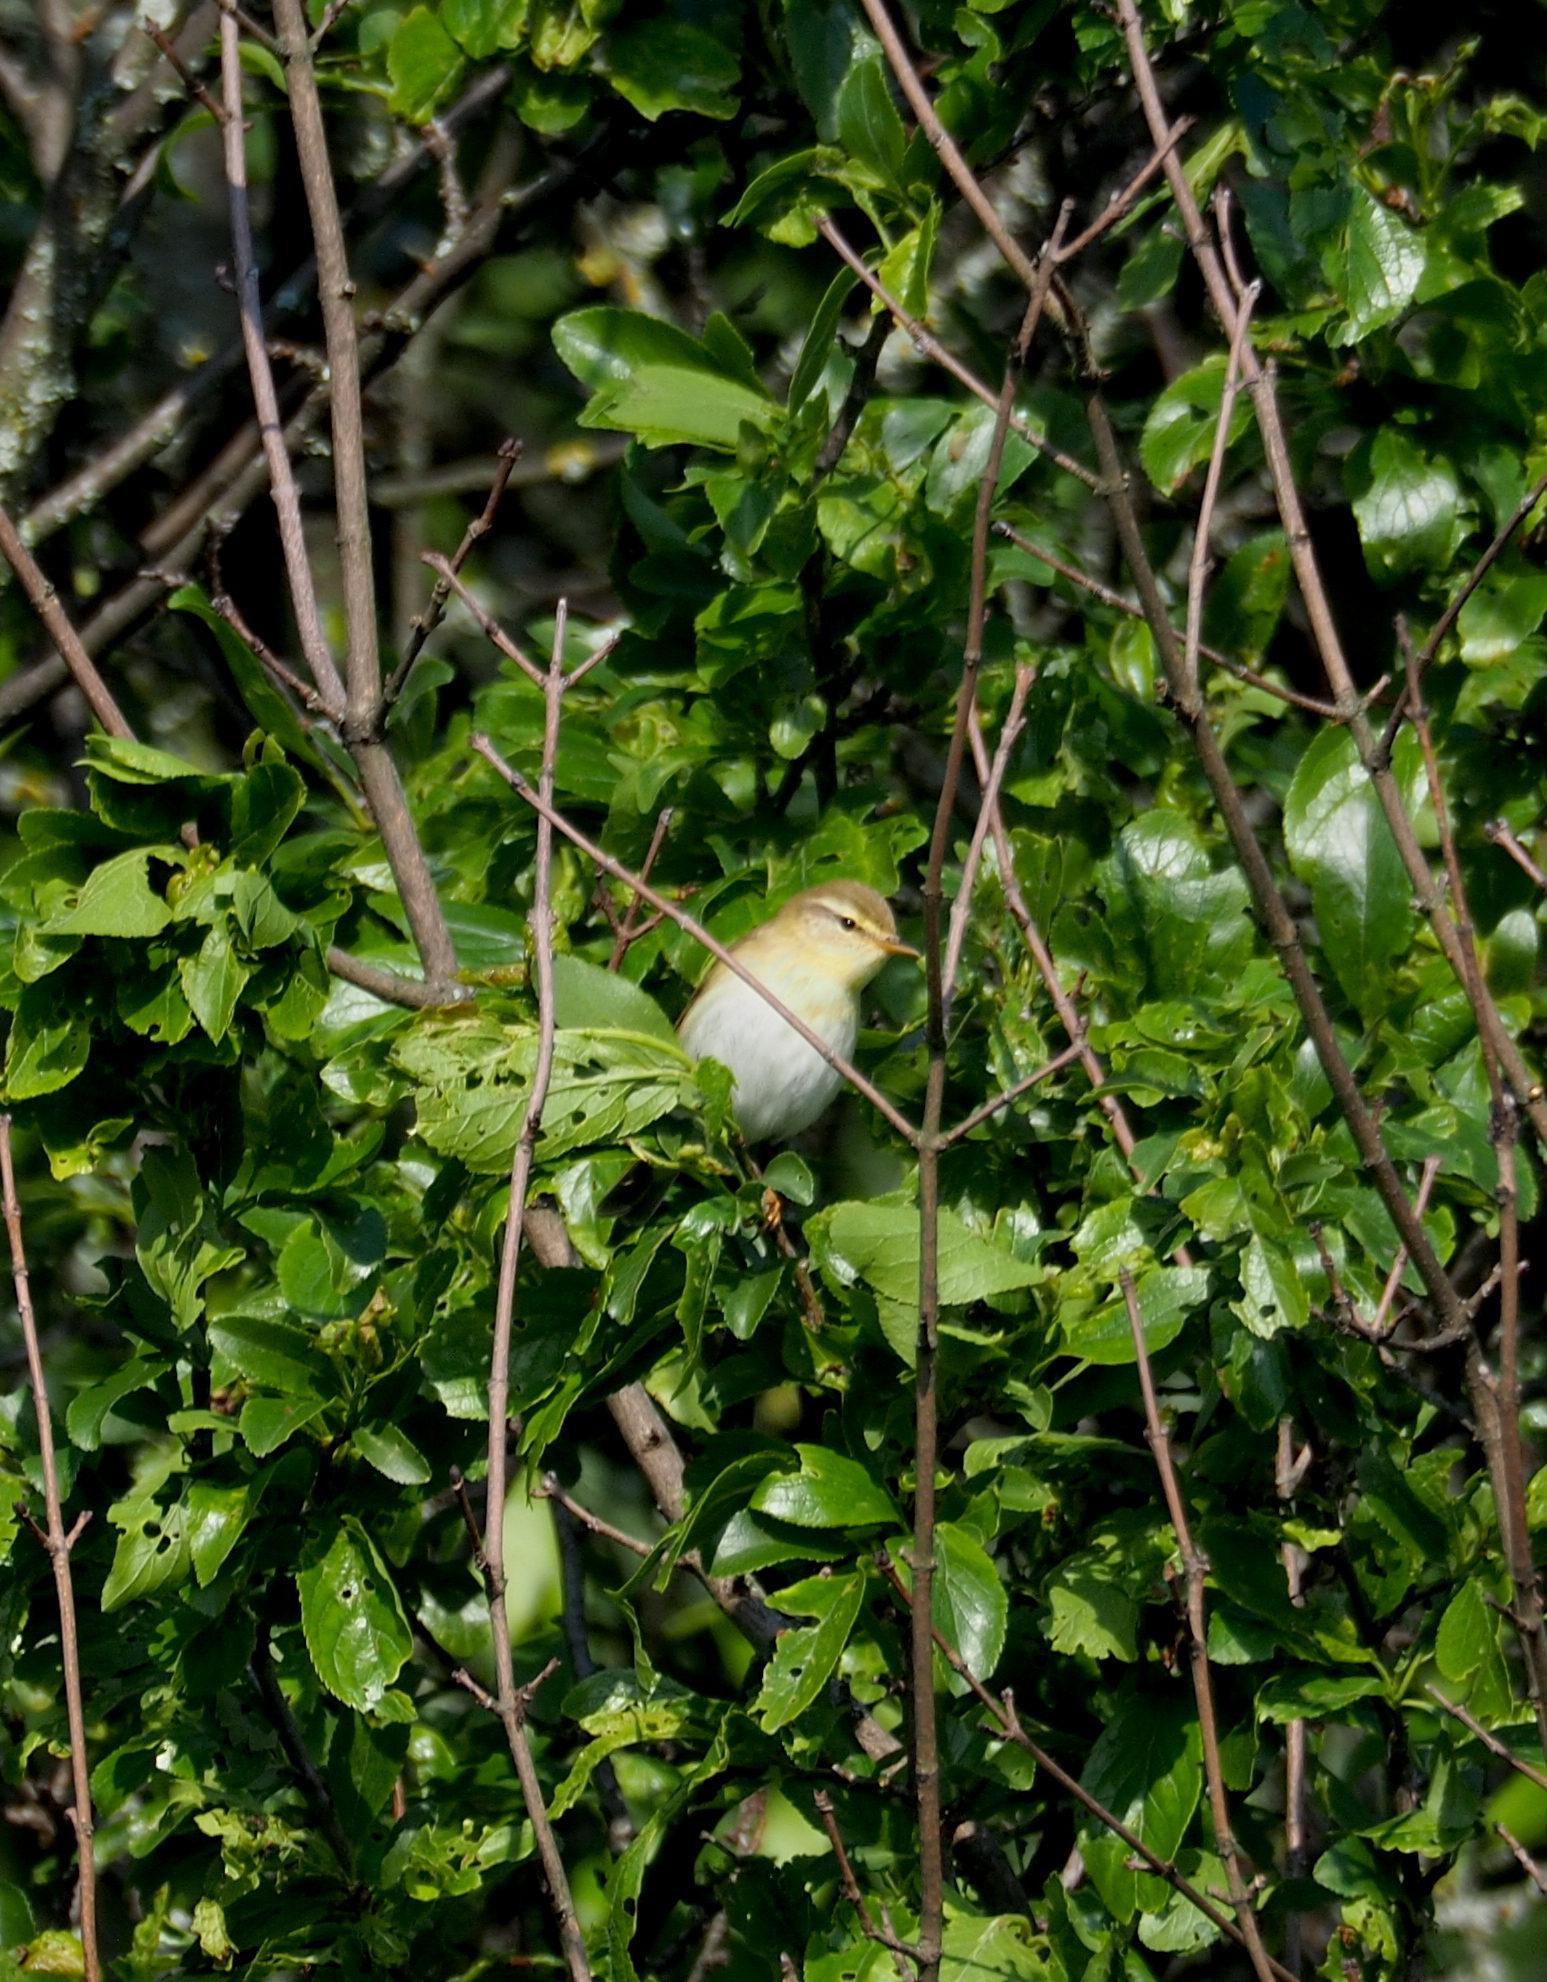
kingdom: Animalia
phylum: Chordata
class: Aves
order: Passeriformes
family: Phylloscopidae
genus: Phylloscopus
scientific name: Phylloscopus sibillatrix
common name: Wood warbler
